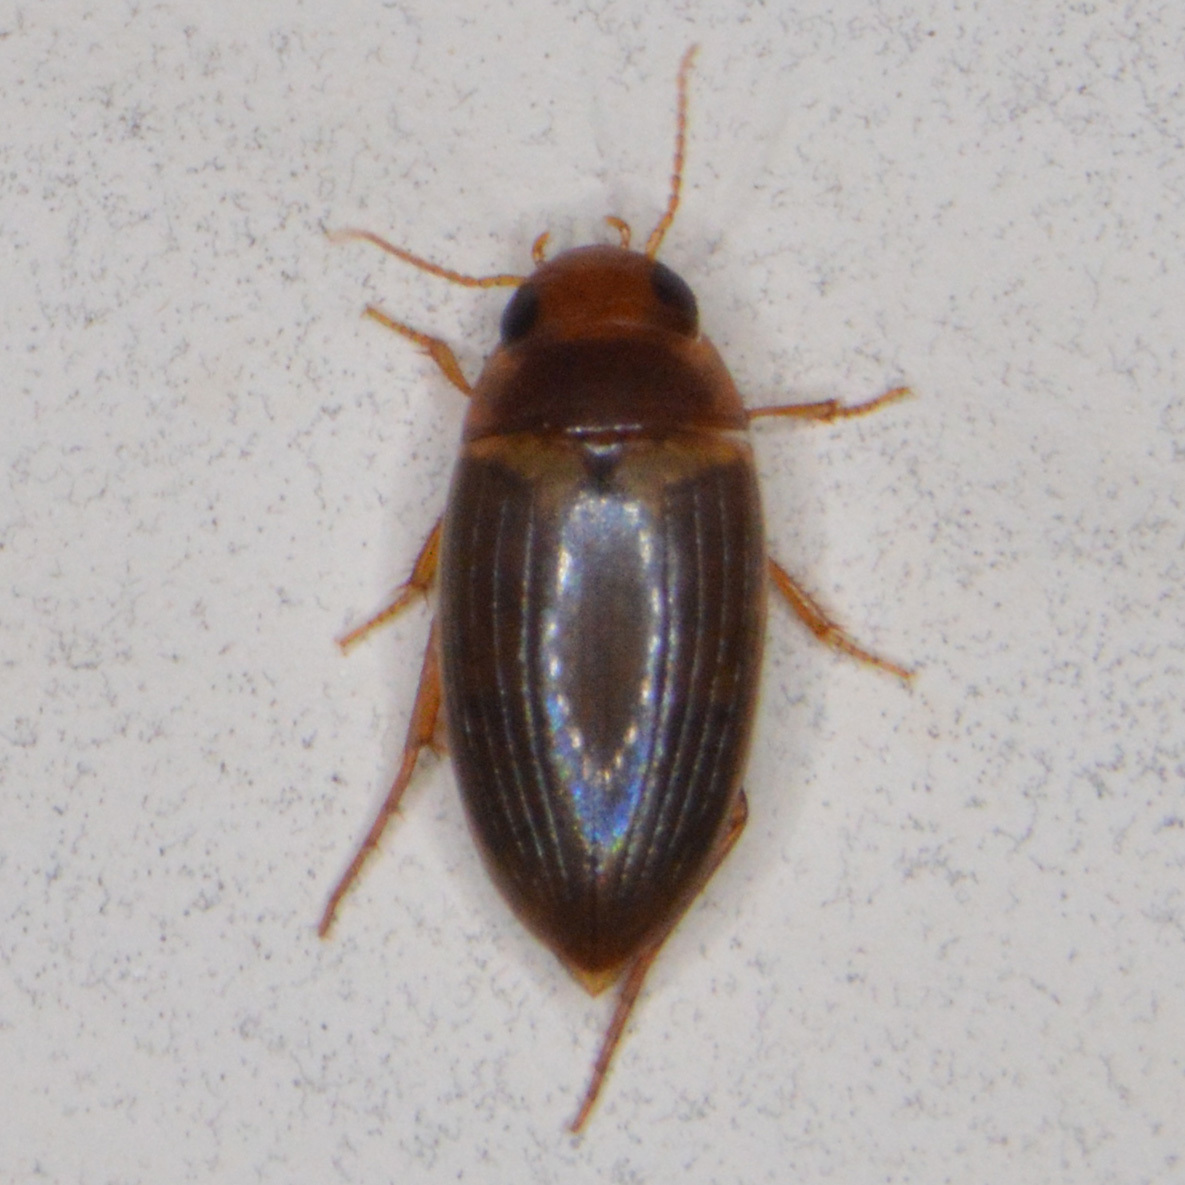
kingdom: Animalia
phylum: Arthropoda
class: Insecta
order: Coleoptera
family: Dytiscidae
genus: Copelatus
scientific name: Copelatus debilis
